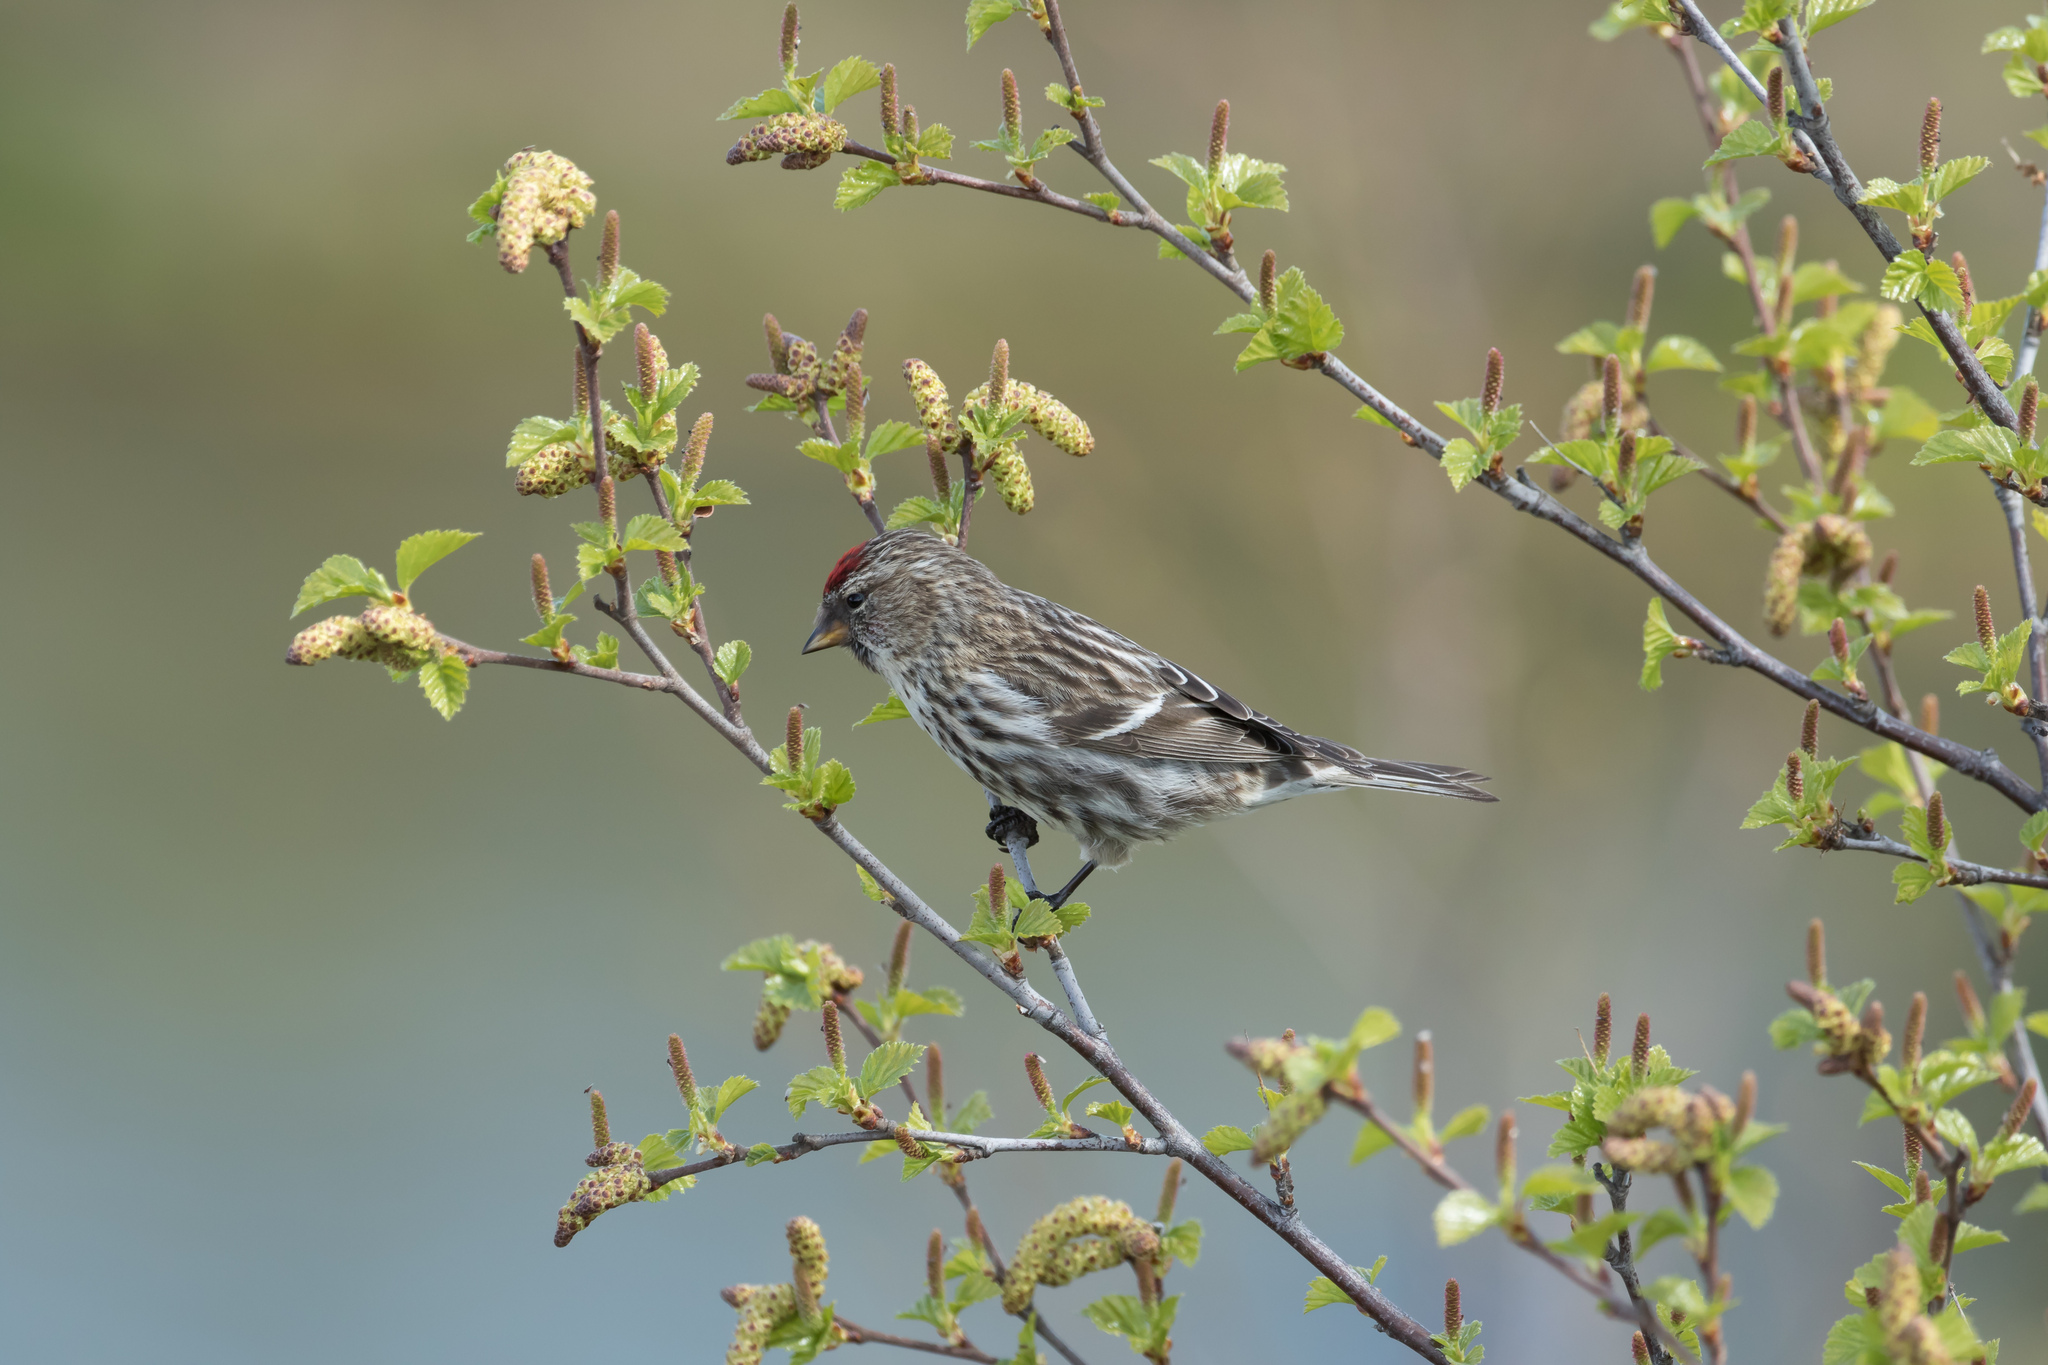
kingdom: Animalia
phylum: Chordata
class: Aves
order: Passeriformes
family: Fringillidae
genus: Acanthis
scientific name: Acanthis flammea
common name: Common redpoll
